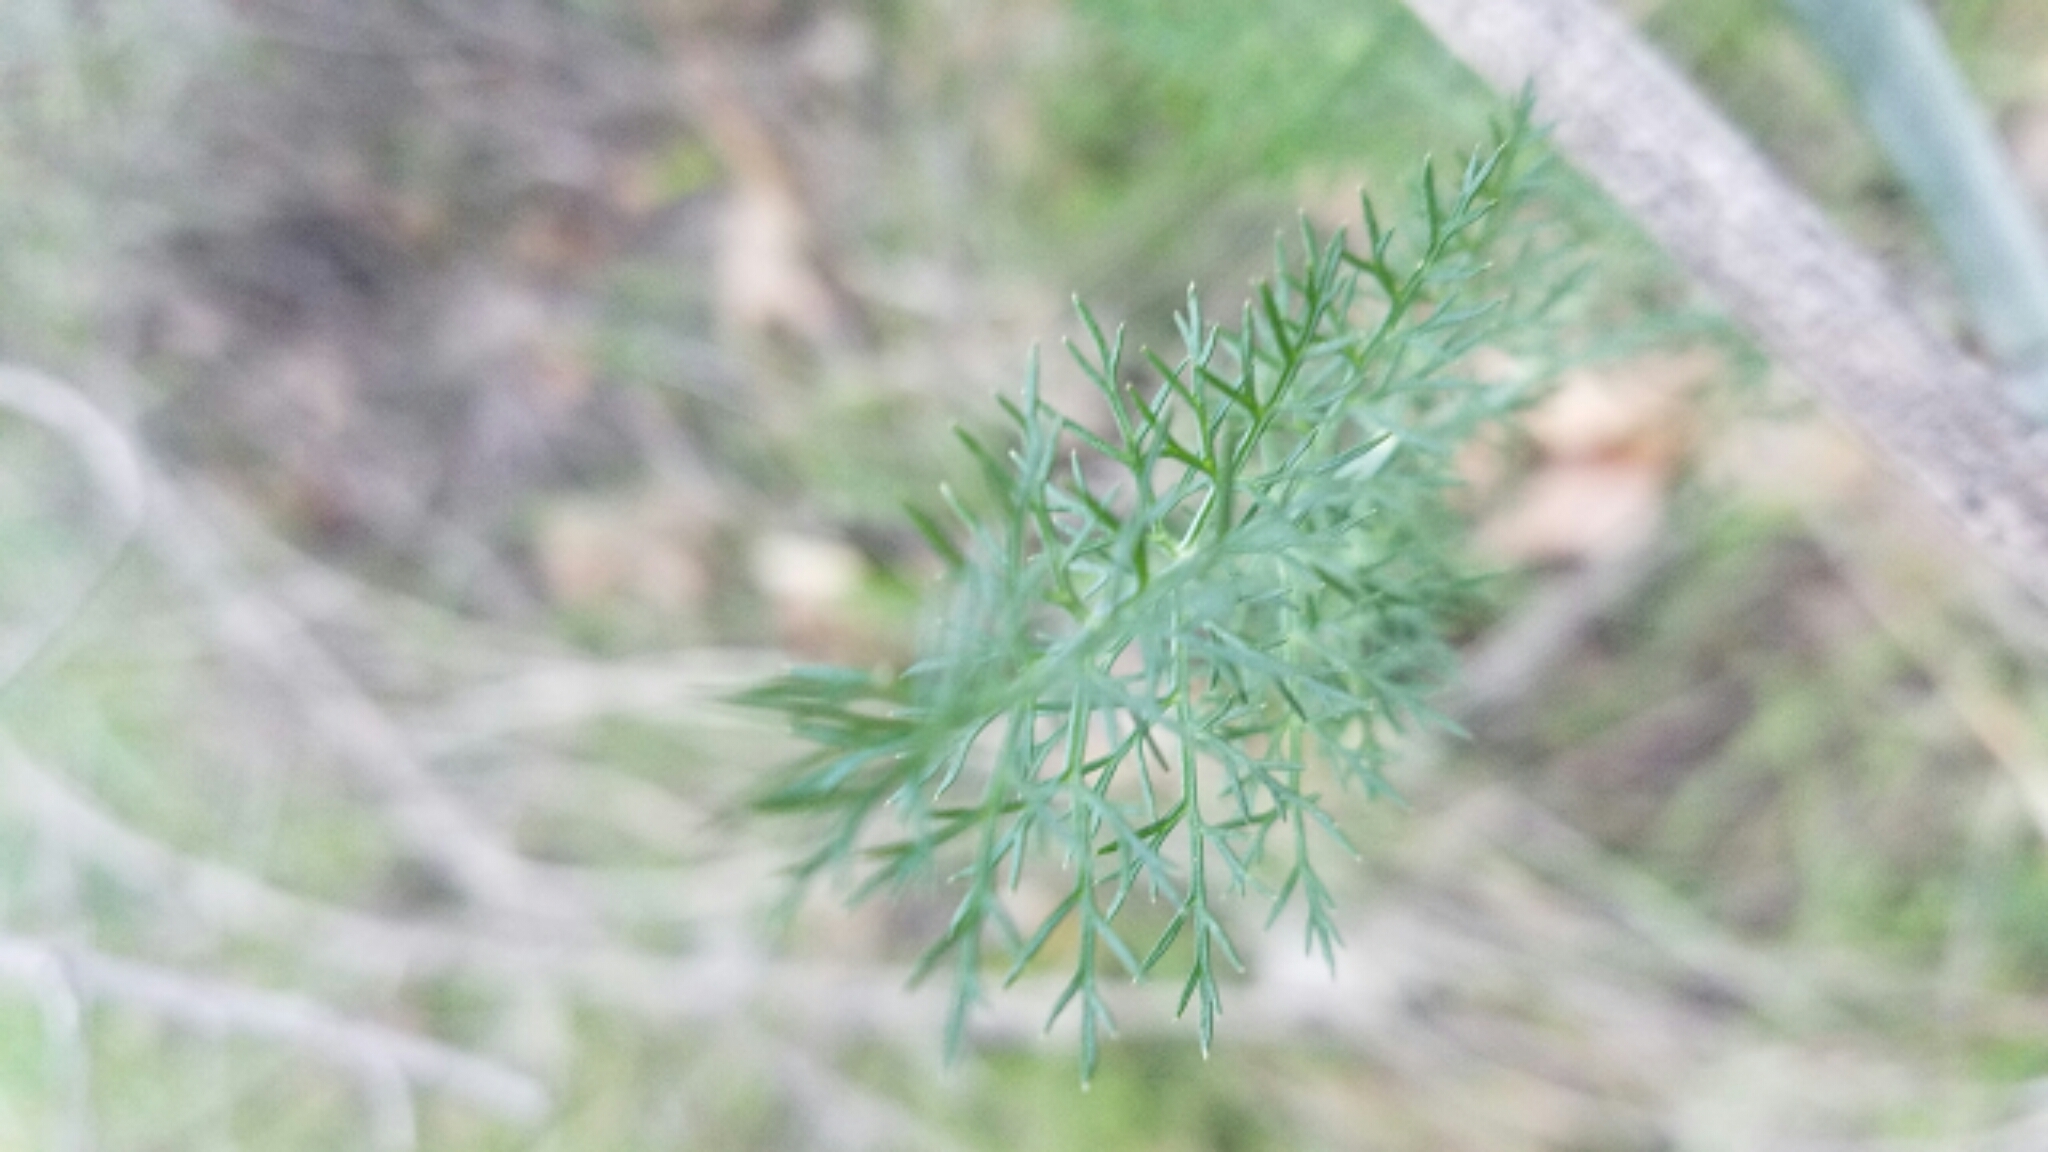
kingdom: Plantae
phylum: Tracheophyta
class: Magnoliopsida
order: Apiales
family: Apiaceae
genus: Foeniculum
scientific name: Foeniculum vulgare
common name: Fennel
